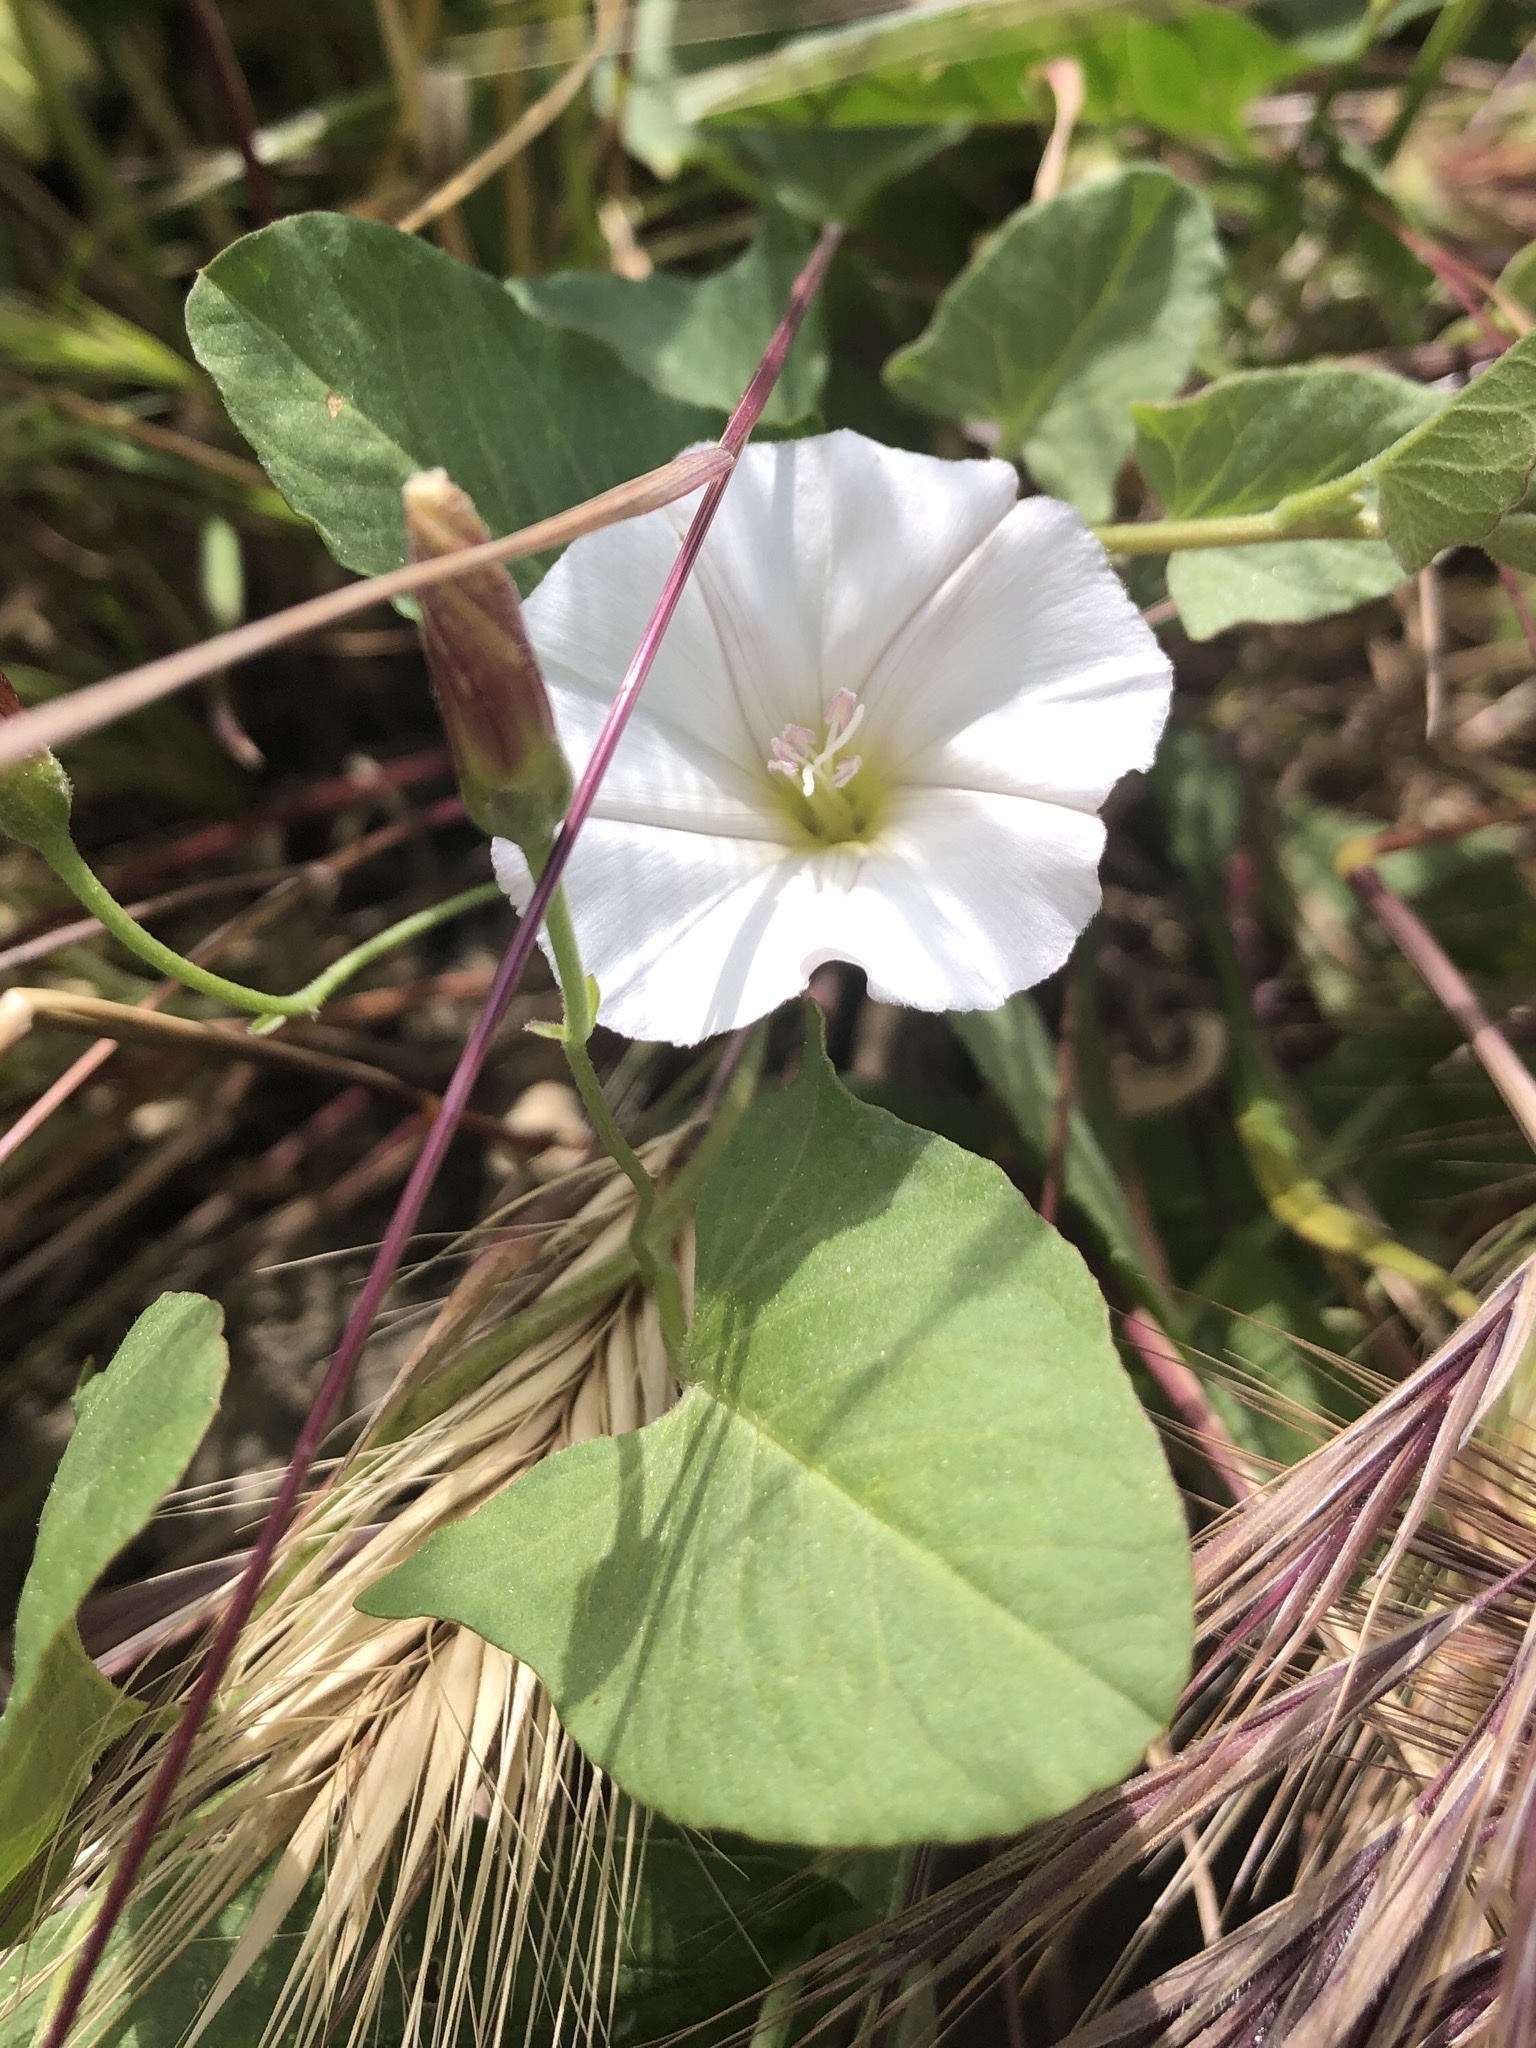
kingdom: Plantae
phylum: Tracheophyta
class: Magnoliopsida
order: Solanales
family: Convolvulaceae
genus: Convolvulus
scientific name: Convolvulus arvensis
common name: Field bindweed
